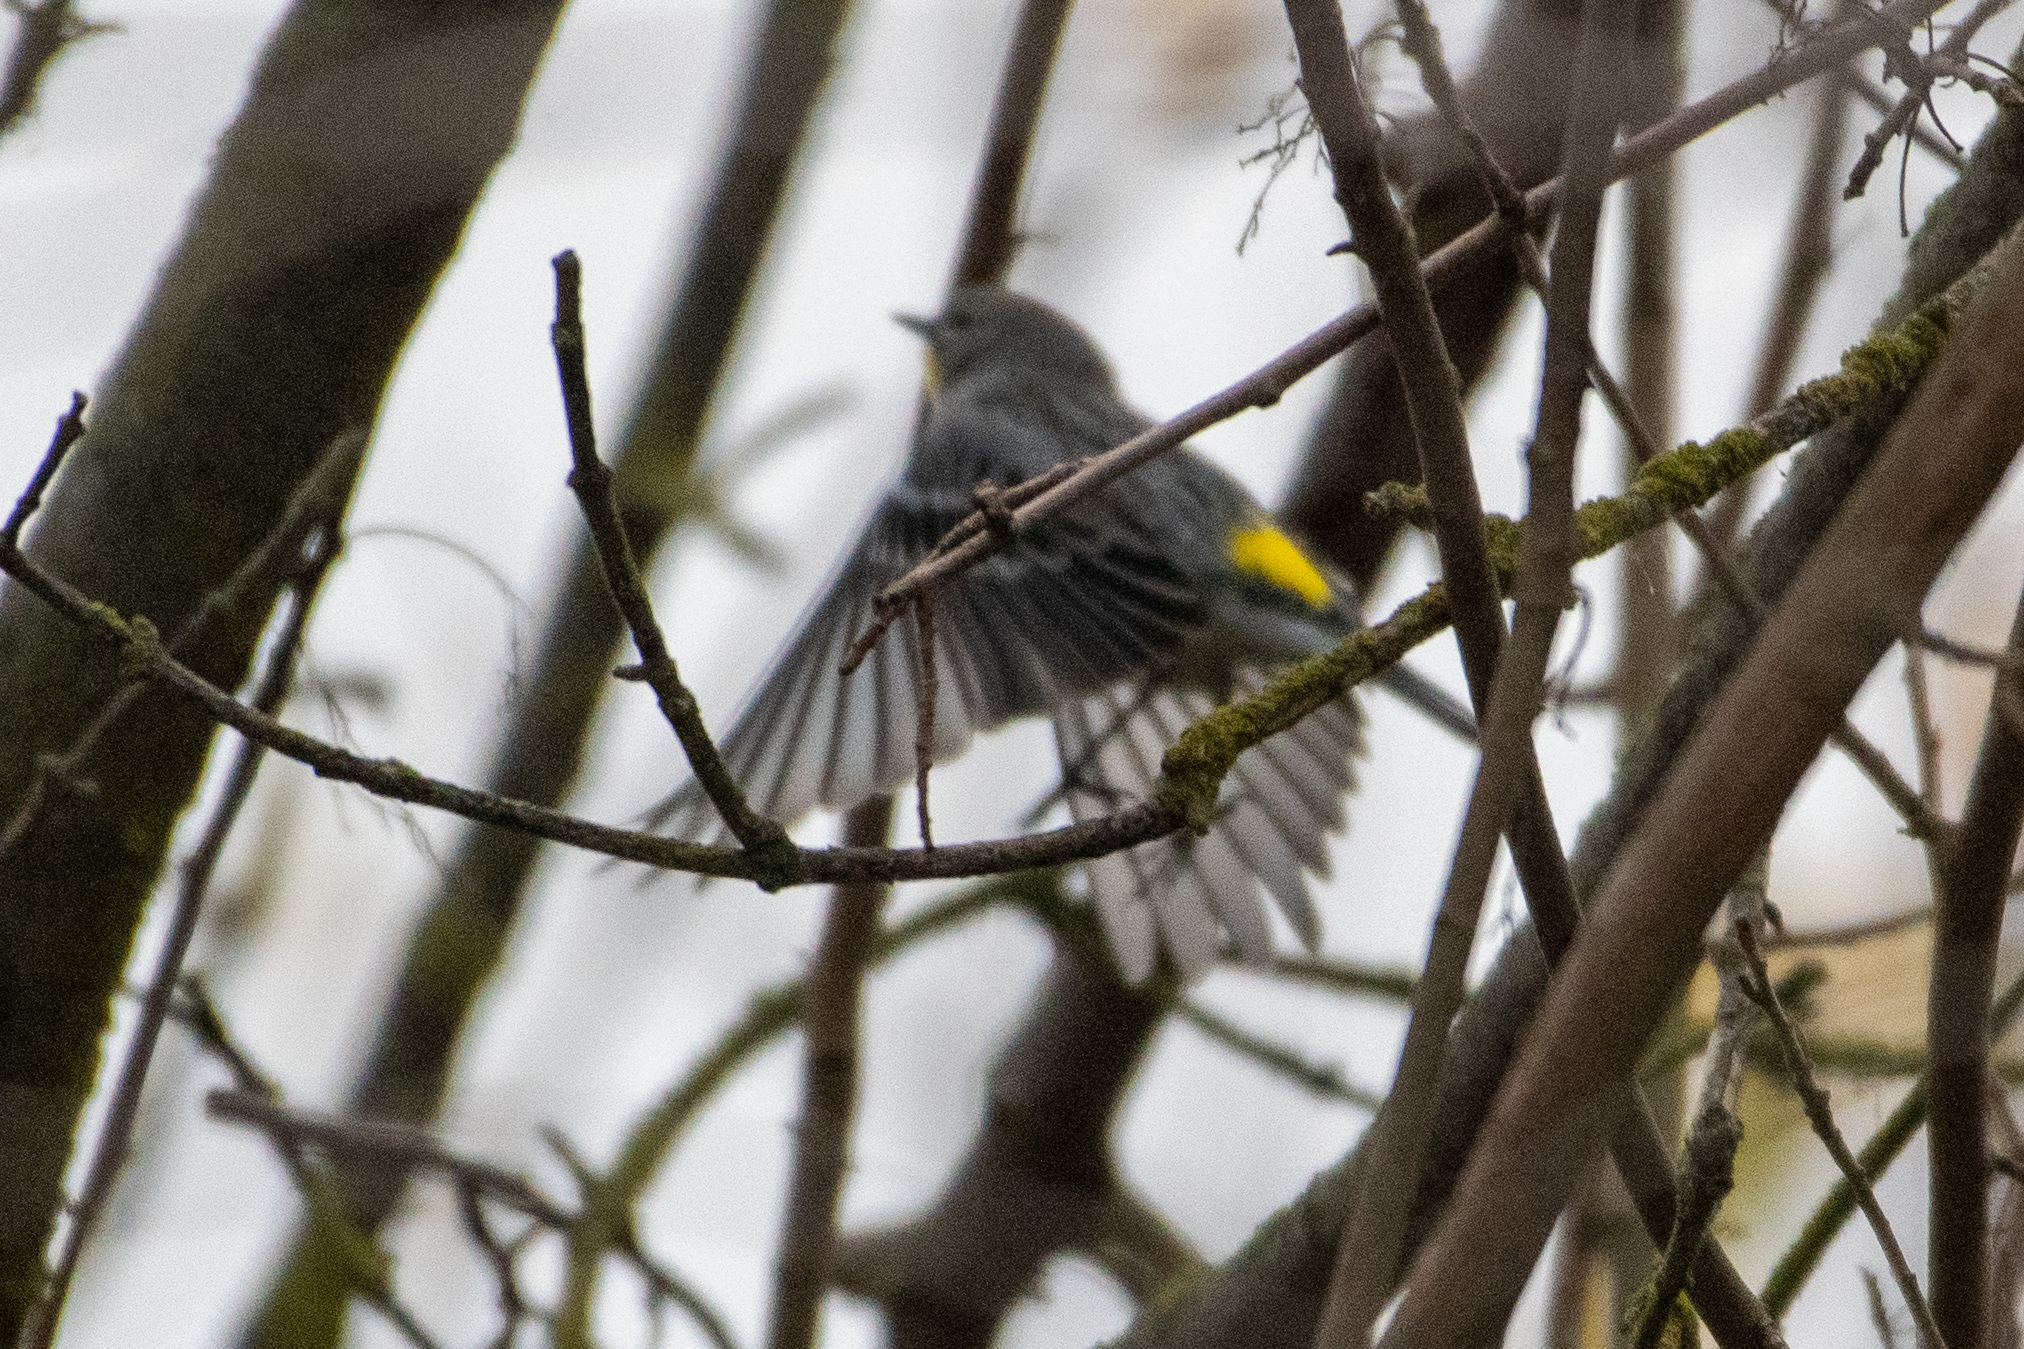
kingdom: Animalia
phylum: Chordata
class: Aves
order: Passeriformes
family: Parulidae
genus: Setophaga
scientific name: Setophaga coronata
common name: Myrtle warbler
